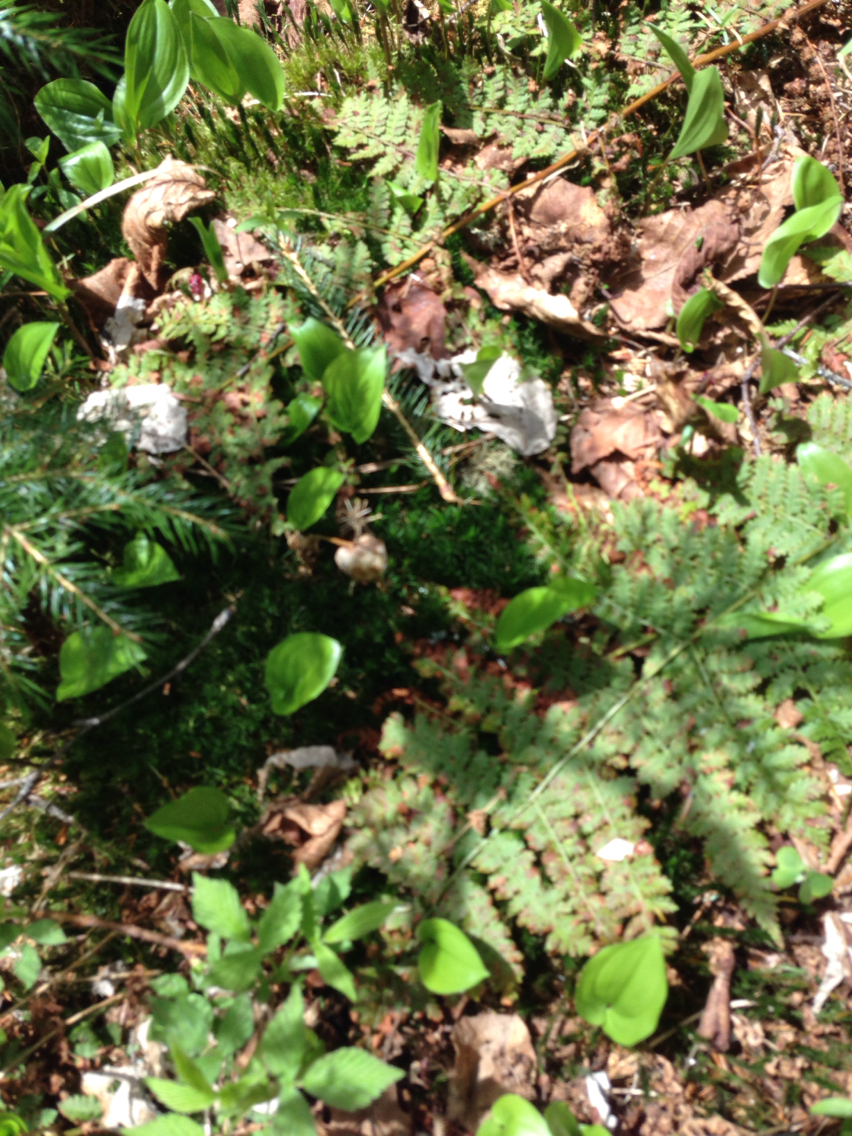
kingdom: Plantae
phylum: Tracheophyta
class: Liliopsida
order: Asparagales
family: Asparagaceae
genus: Maianthemum
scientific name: Maianthemum canadense
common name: False lily-of-the-valley
